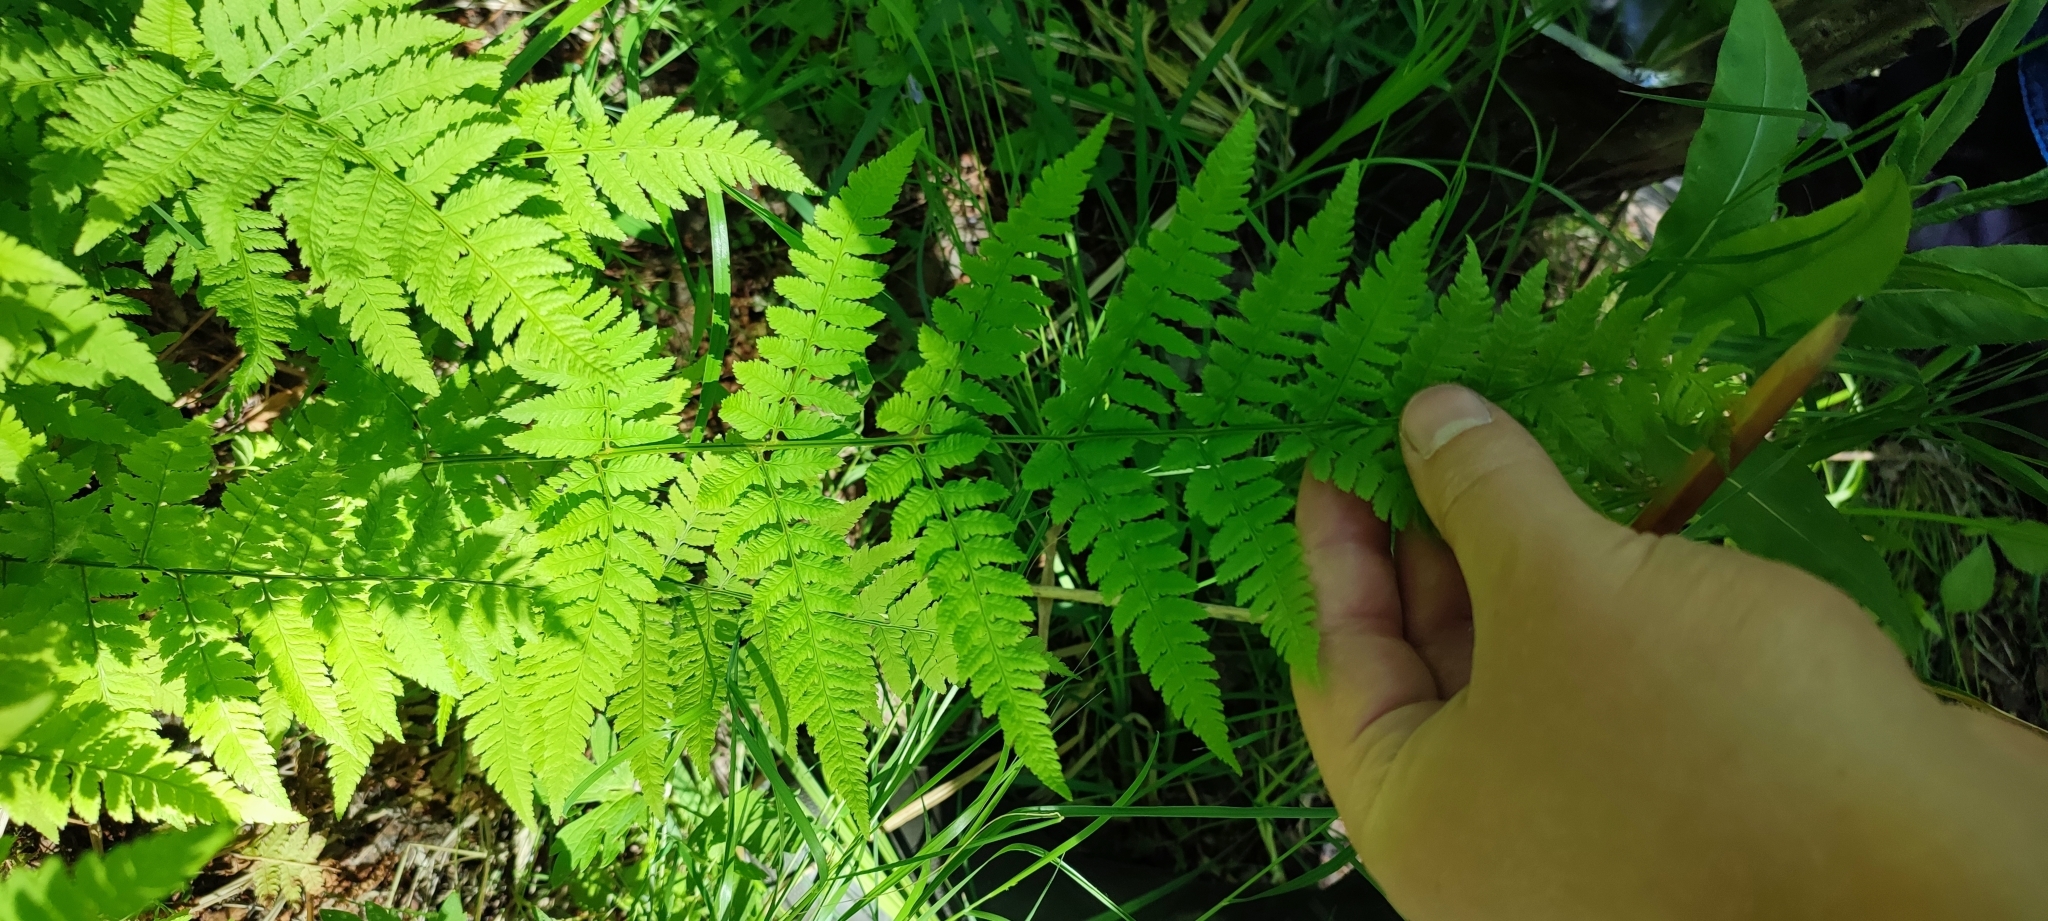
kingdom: Plantae
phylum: Tracheophyta
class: Polypodiopsida
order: Polypodiales
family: Dryopteridaceae
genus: Dryopteris
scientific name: Dryopteris carthusiana
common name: Narrow buckler-fern
